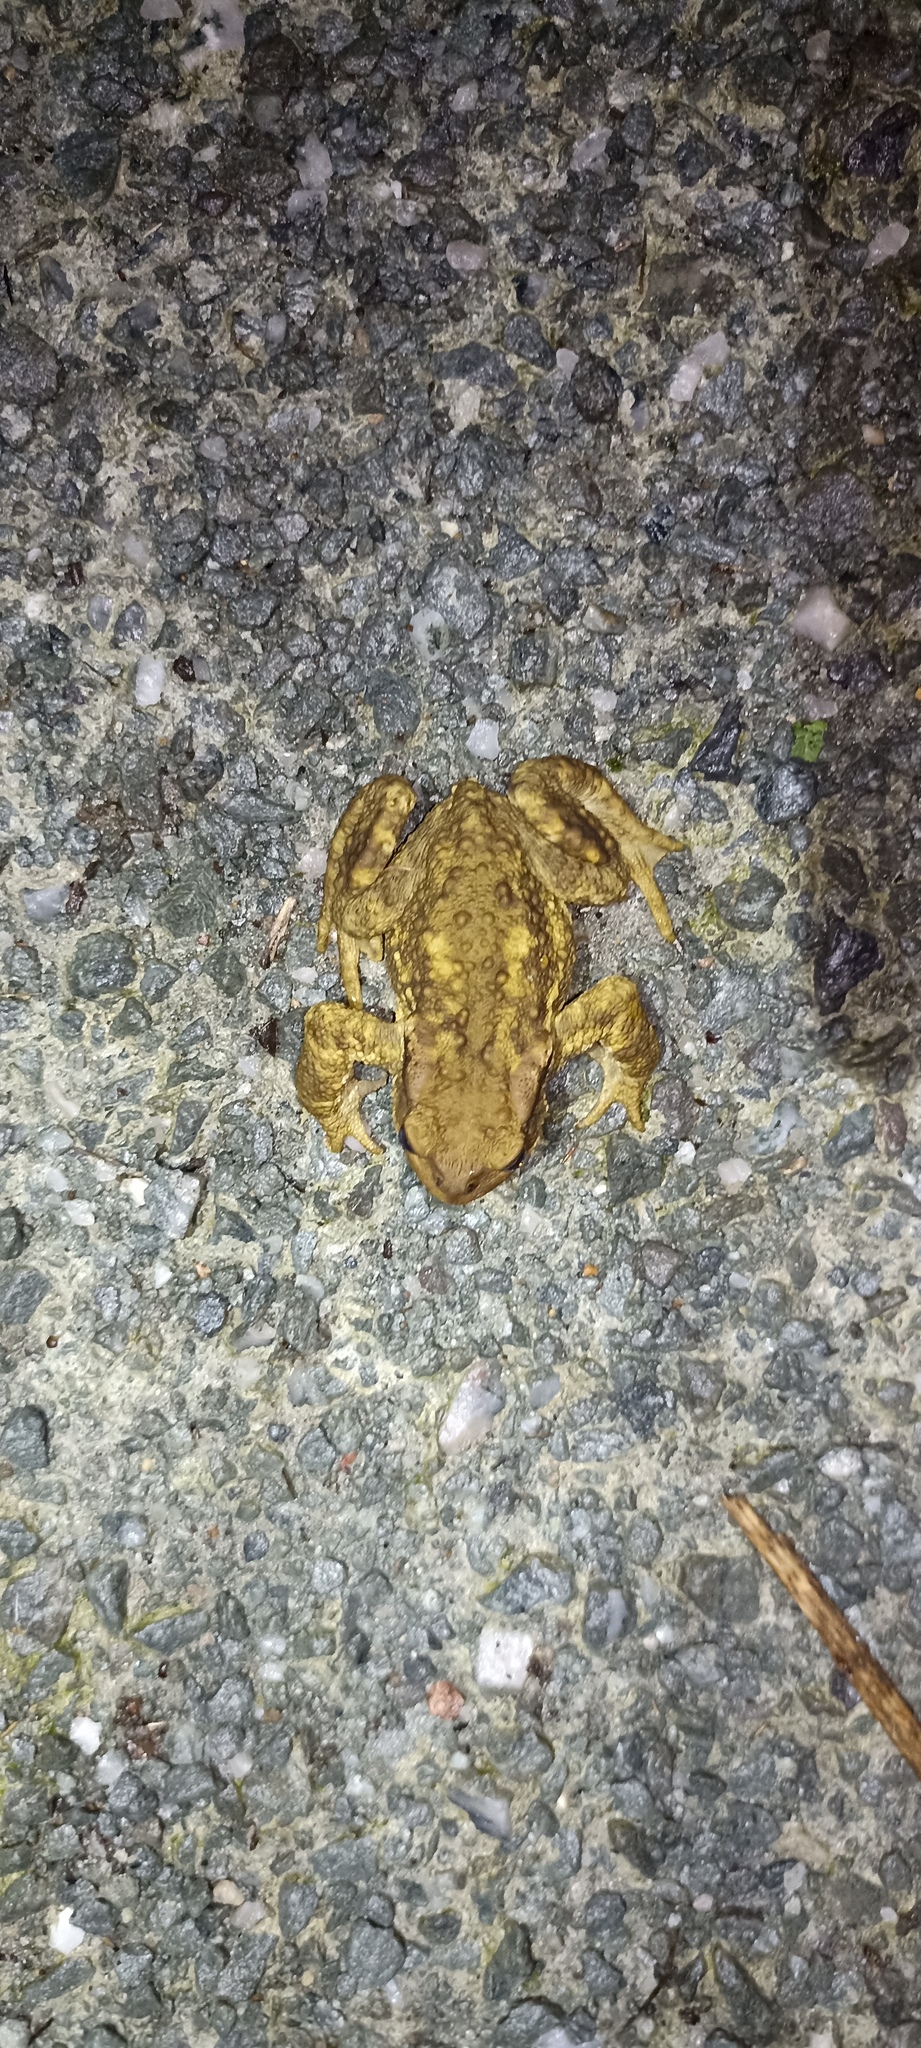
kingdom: Animalia
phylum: Chordata
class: Amphibia
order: Anura
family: Bufonidae
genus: Bufo
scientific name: Bufo spinosus
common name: Western common toad
